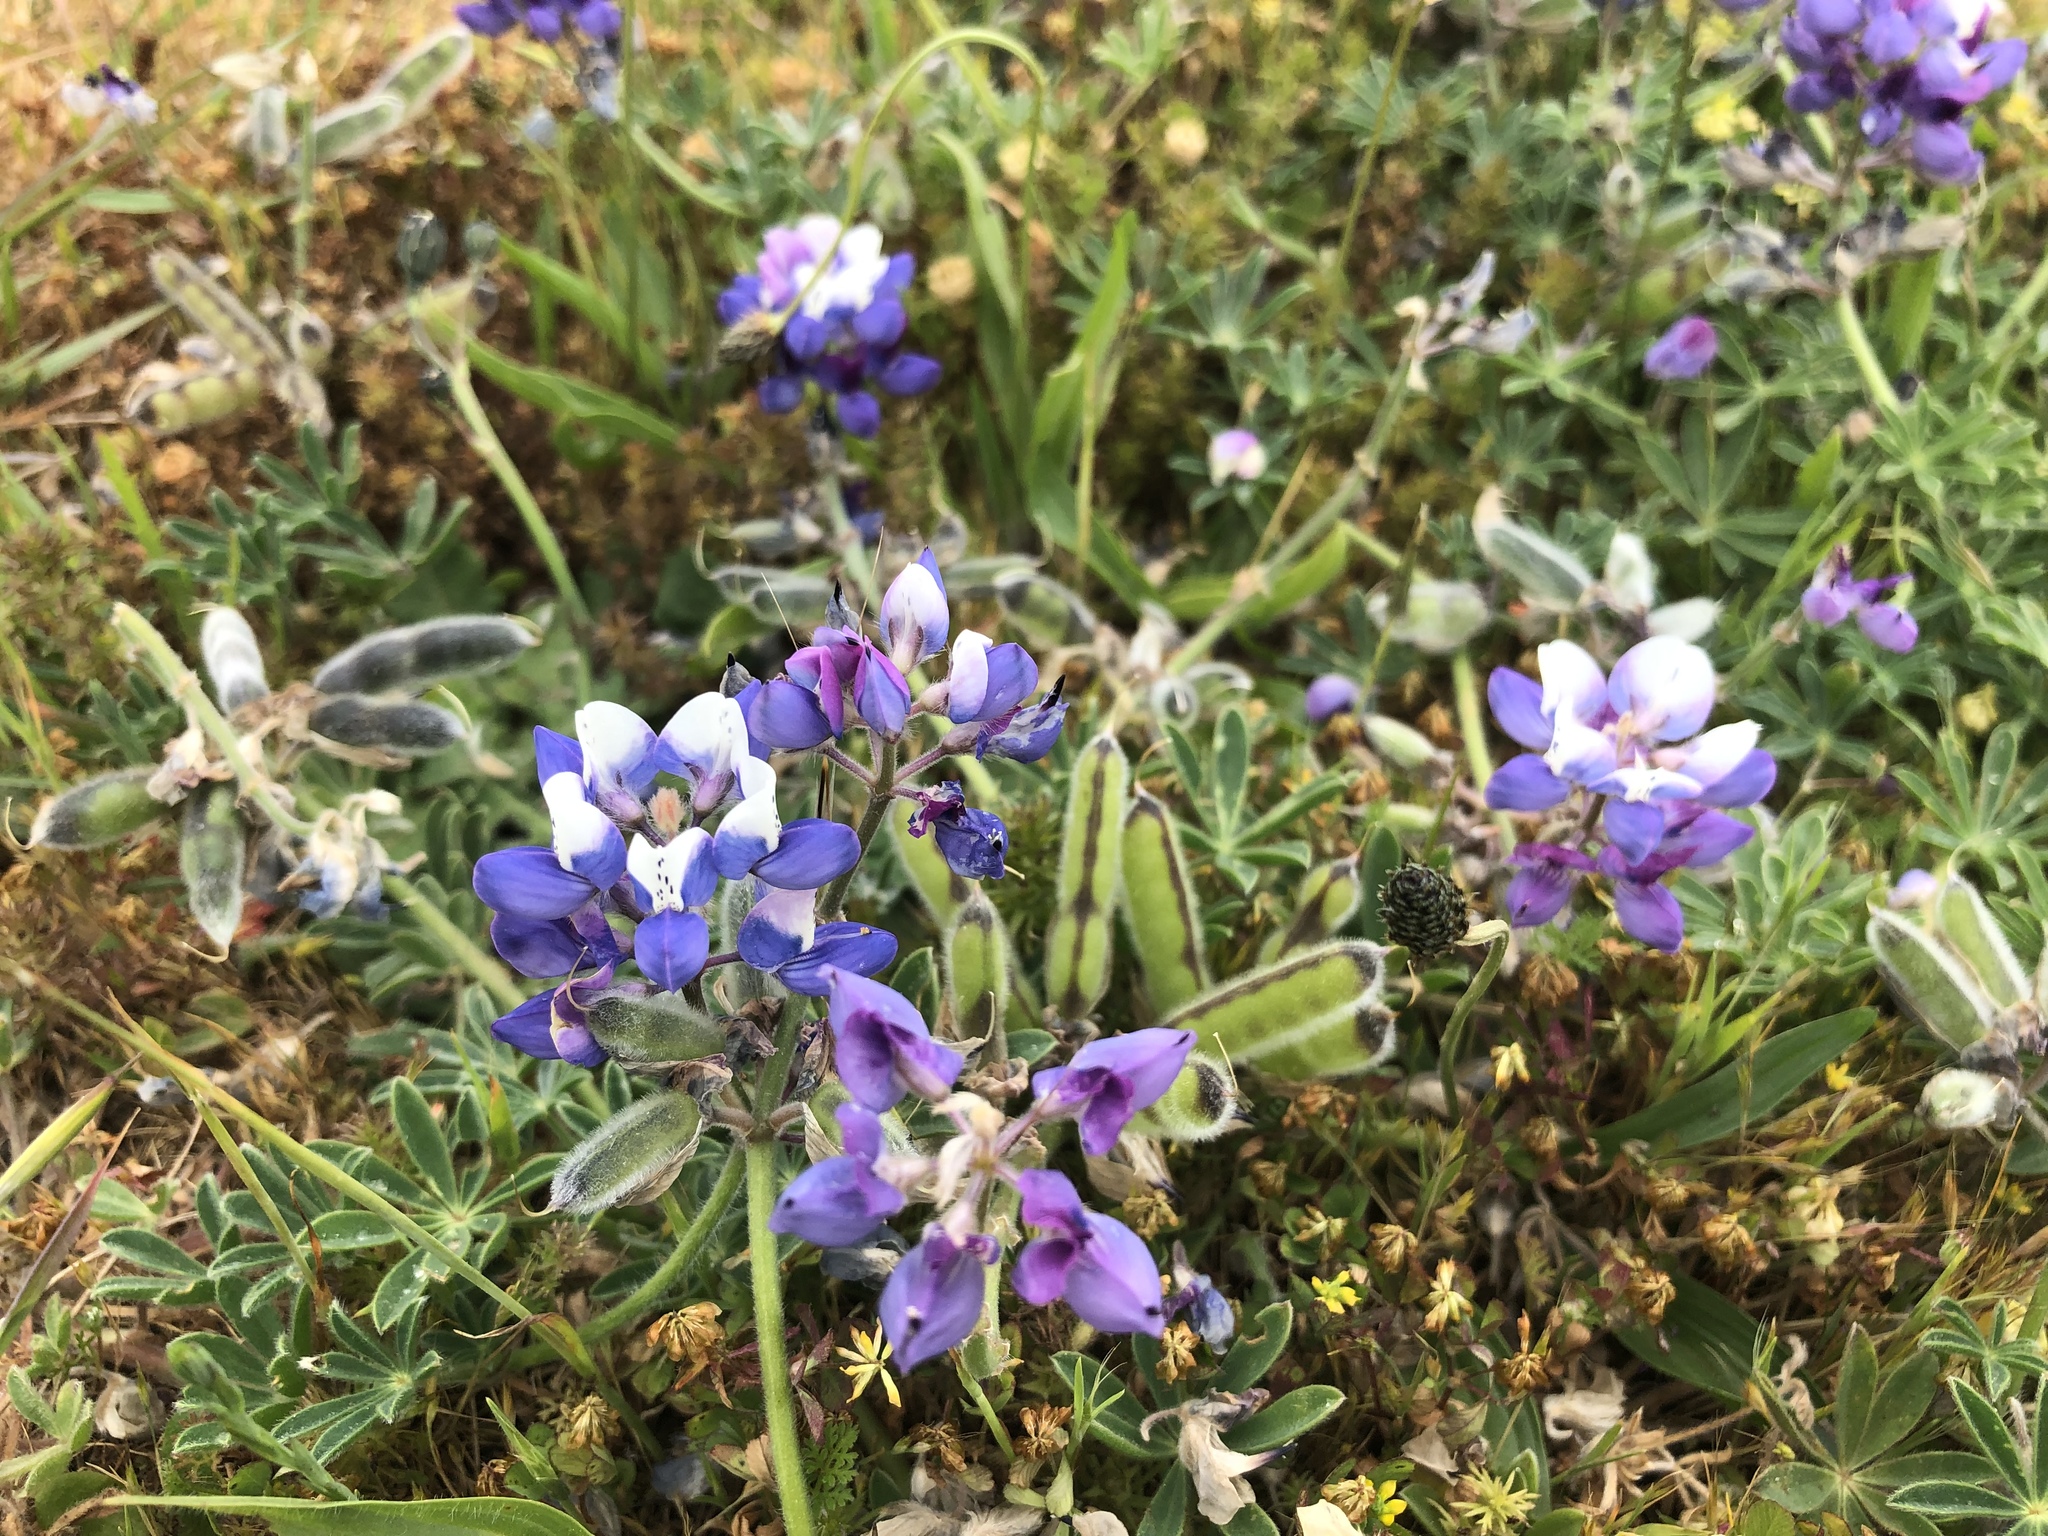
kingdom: Plantae
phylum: Tracheophyta
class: Magnoliopsida
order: Fabales
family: Fabaceae
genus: Lupinus
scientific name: Lupinus nanus
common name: Orean blue lupin
